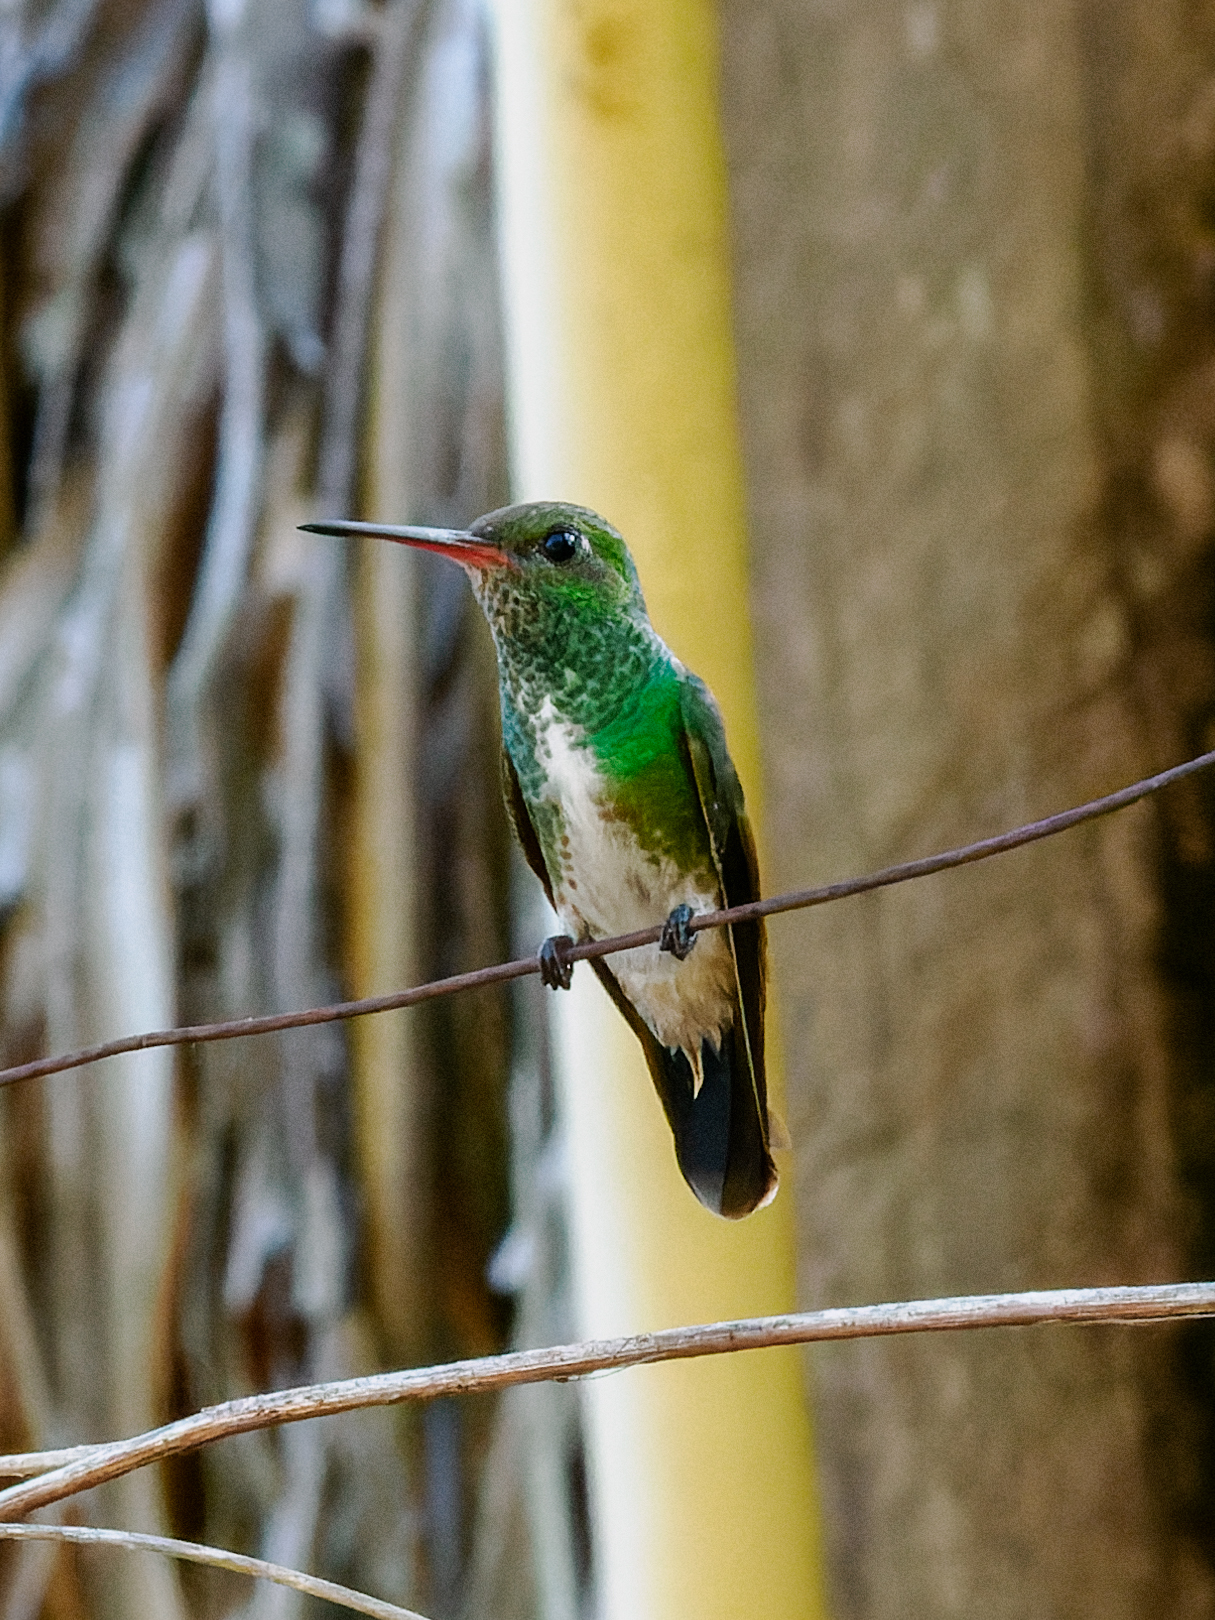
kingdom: Animalia
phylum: Chordata
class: Aves
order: Apodiformes
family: Trochilidae
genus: Chionomesa
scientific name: Chionomesa fimbriata
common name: Glittering-throated emerald
